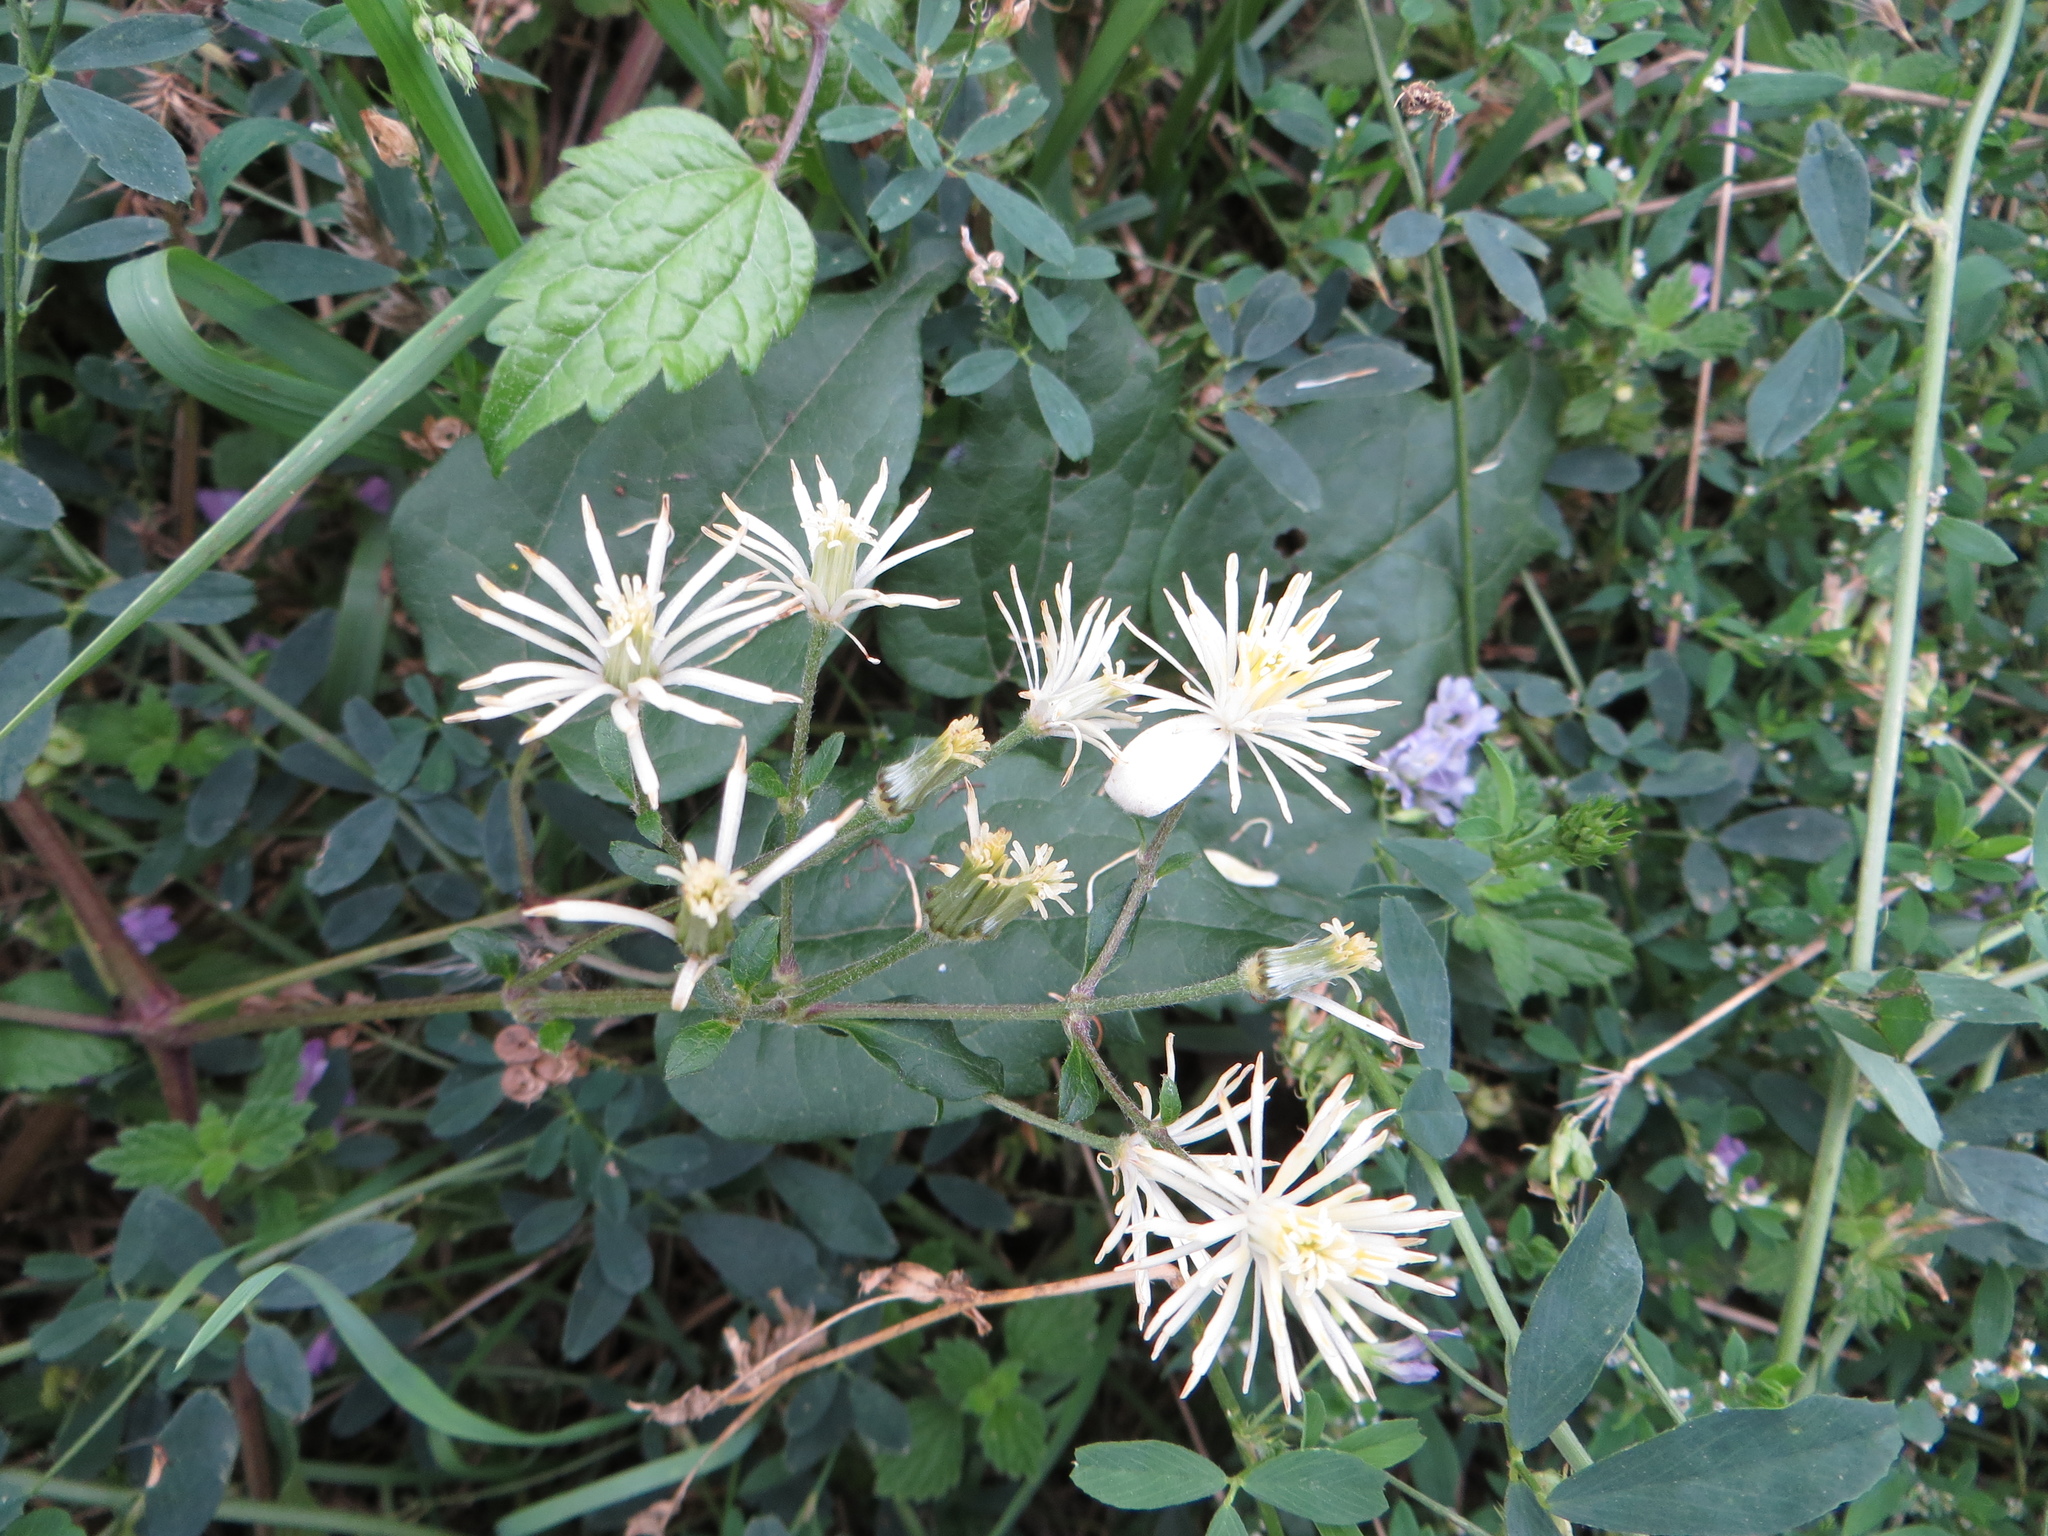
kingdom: Plantae
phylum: Tracheophyta
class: Magnoliopsida
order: Ranunculales
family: Ranunculaceae
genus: Clematis
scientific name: Clematis vitalba
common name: Evergreen clematis
